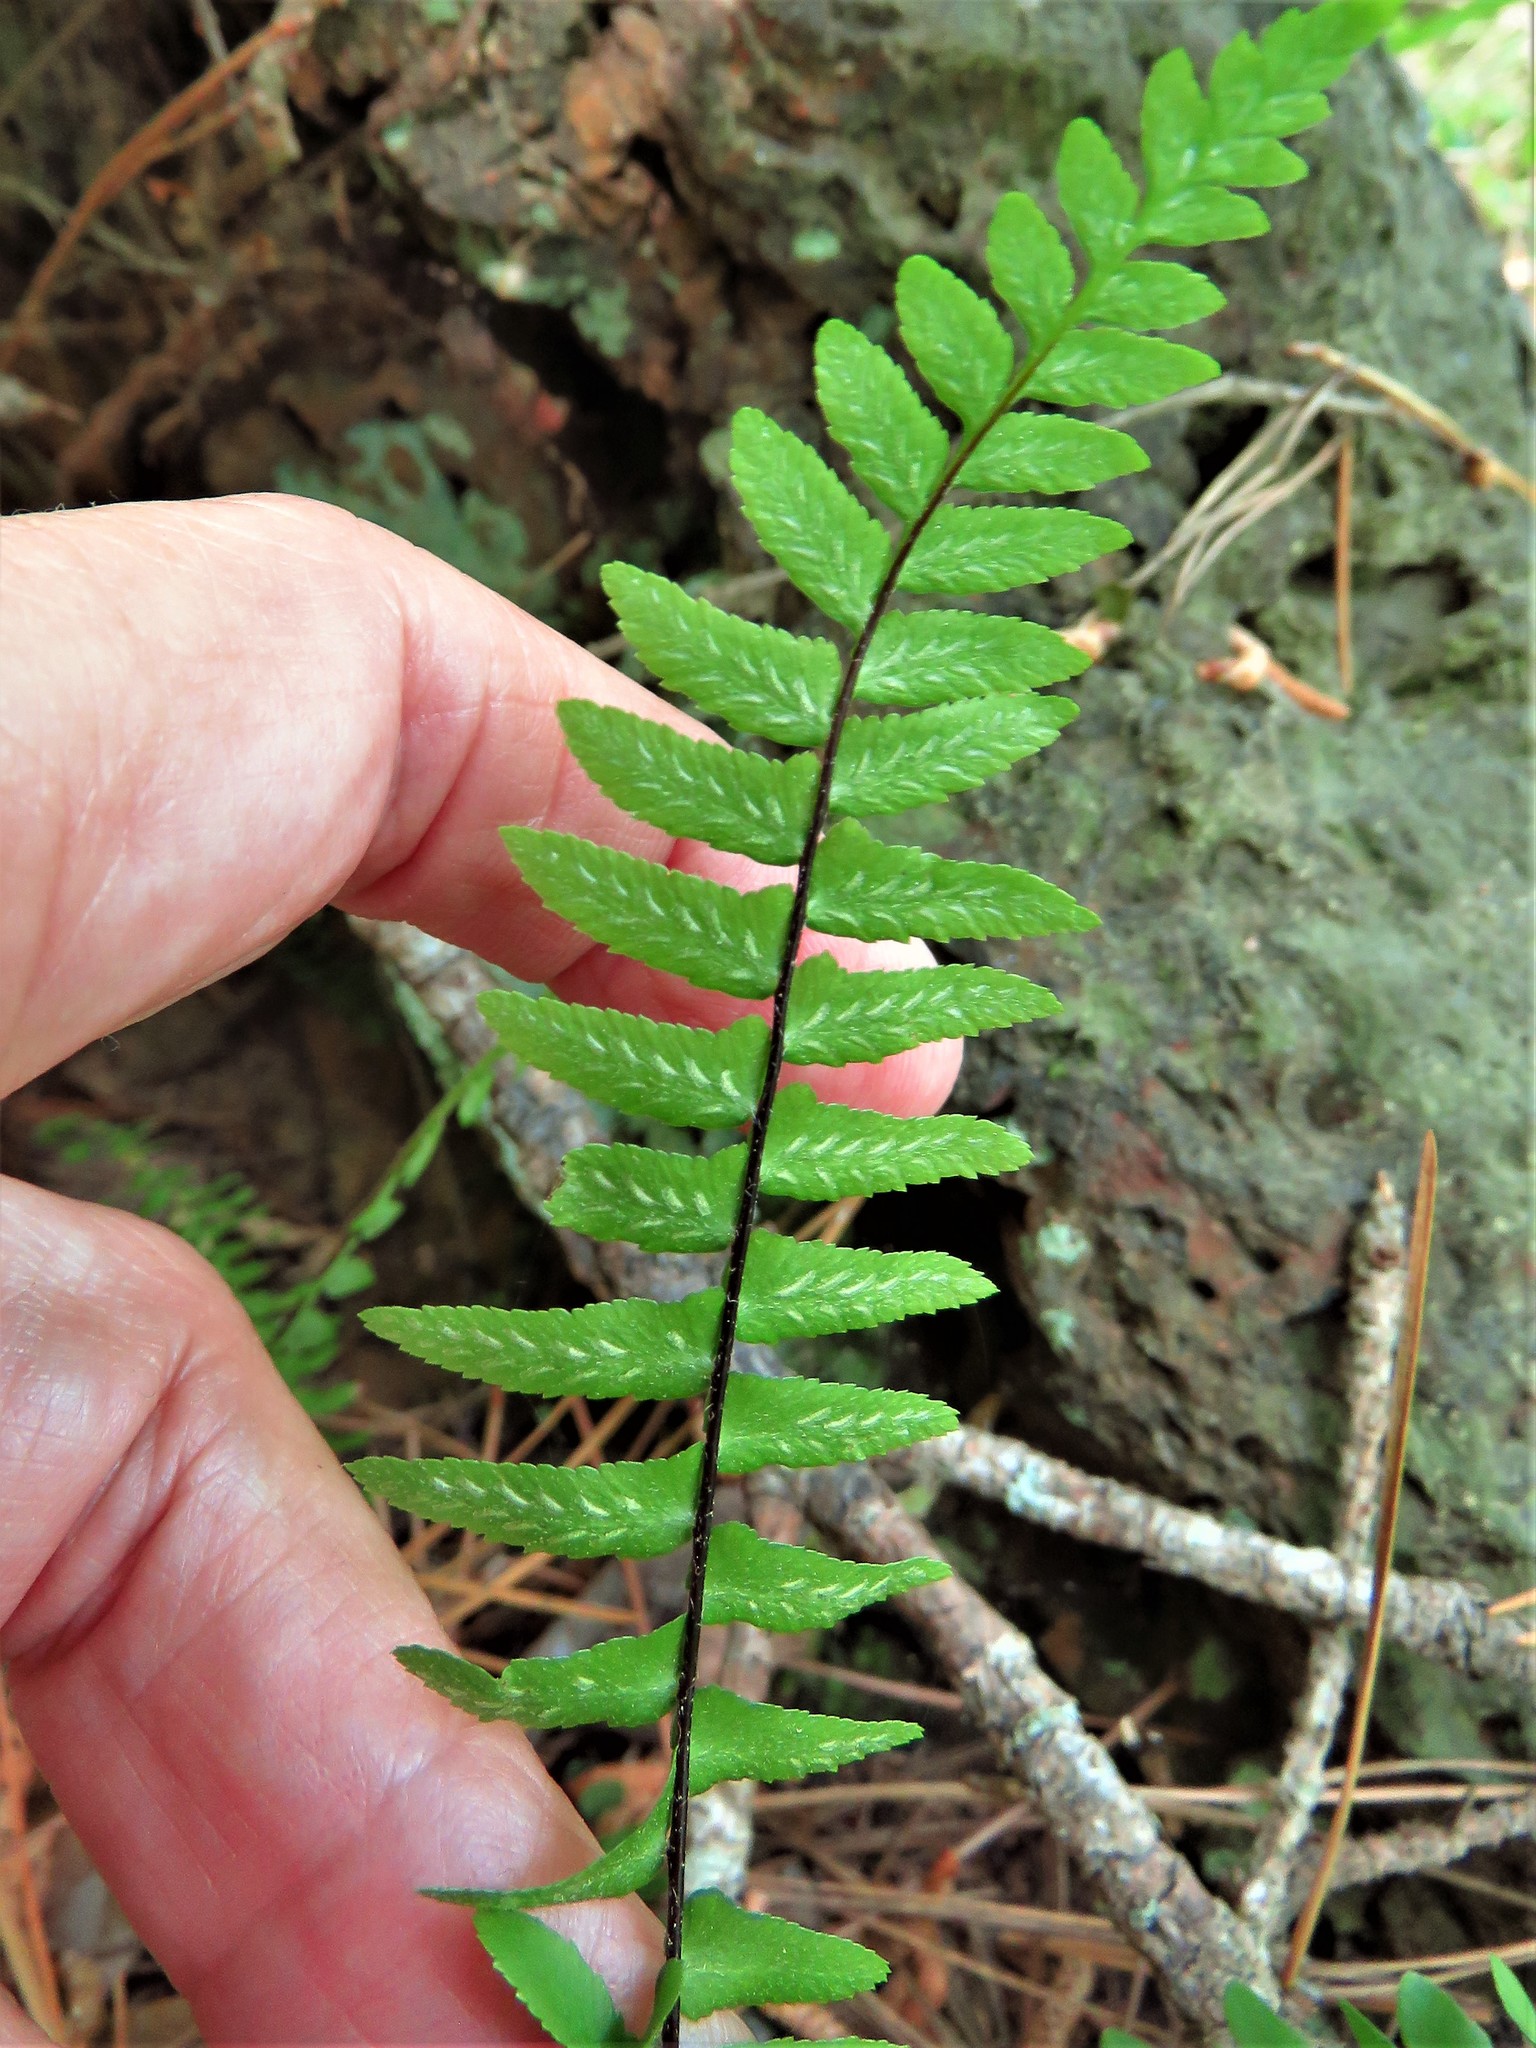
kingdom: Plantae
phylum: Tracheophyta
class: Polypodiopsida
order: Polypodiales
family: Aspleniaceae
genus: Asplenium
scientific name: Asplenium platyneuron
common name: Ebony spleenwort
